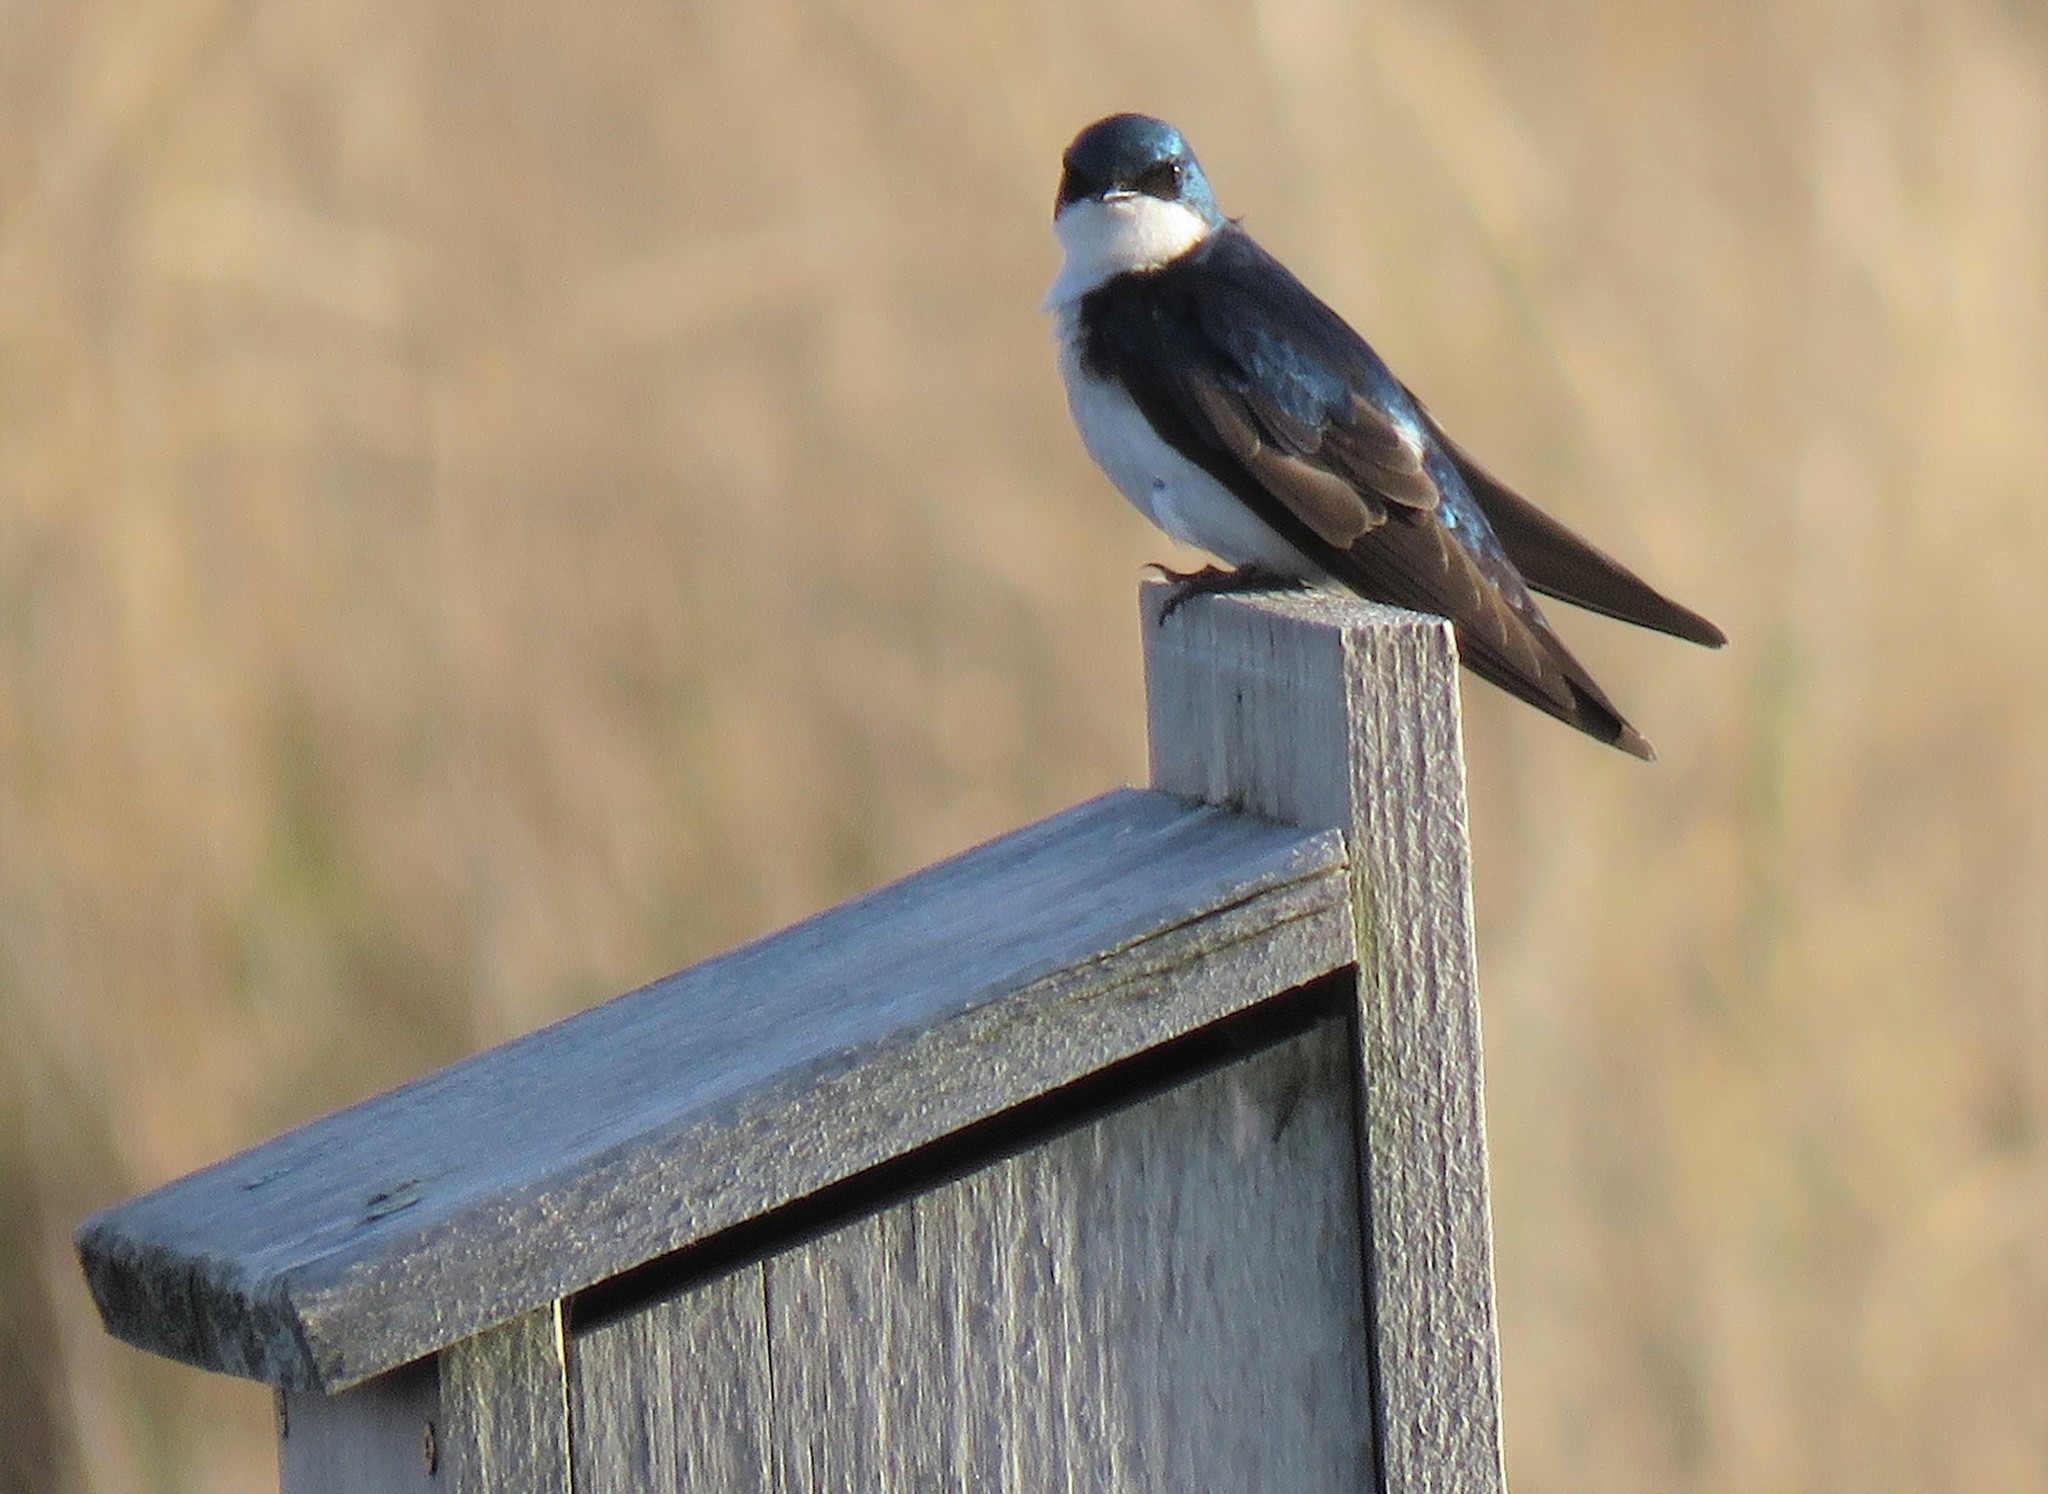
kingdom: Animalia
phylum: Chordata
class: Aves
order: Passeriformes
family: Hirundinidae
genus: Tachycineta
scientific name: Tachycineta bicolor
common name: Tree swallow
